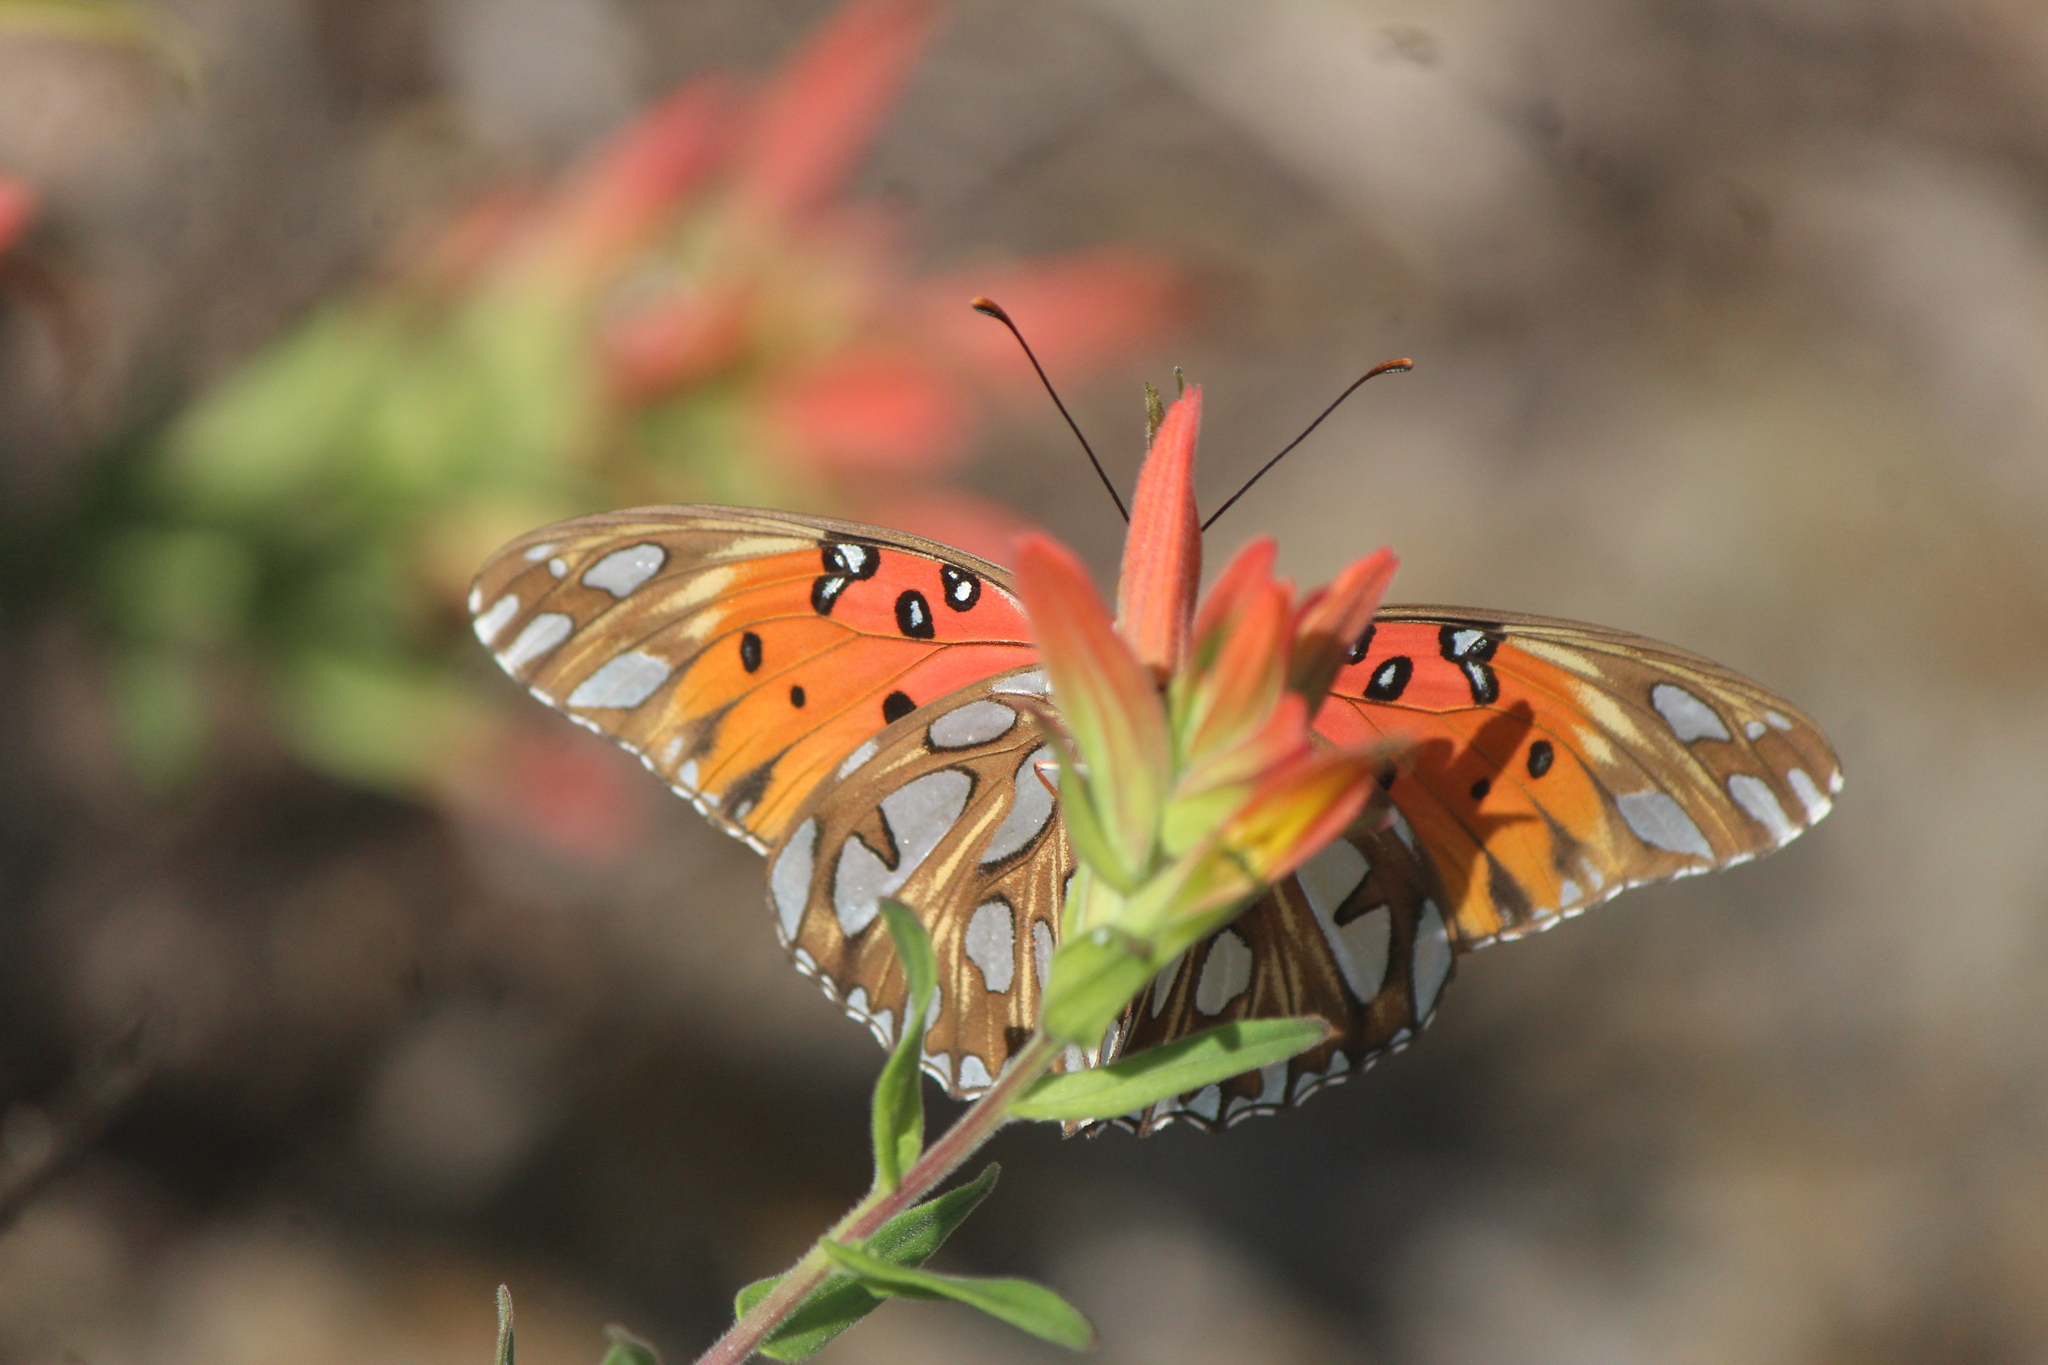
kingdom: Animalia
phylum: Arthropoda
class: Insecta
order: Lepidoptera
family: Nymphalidae
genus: Dione
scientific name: Dione vanillae
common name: Gulf fritillary
